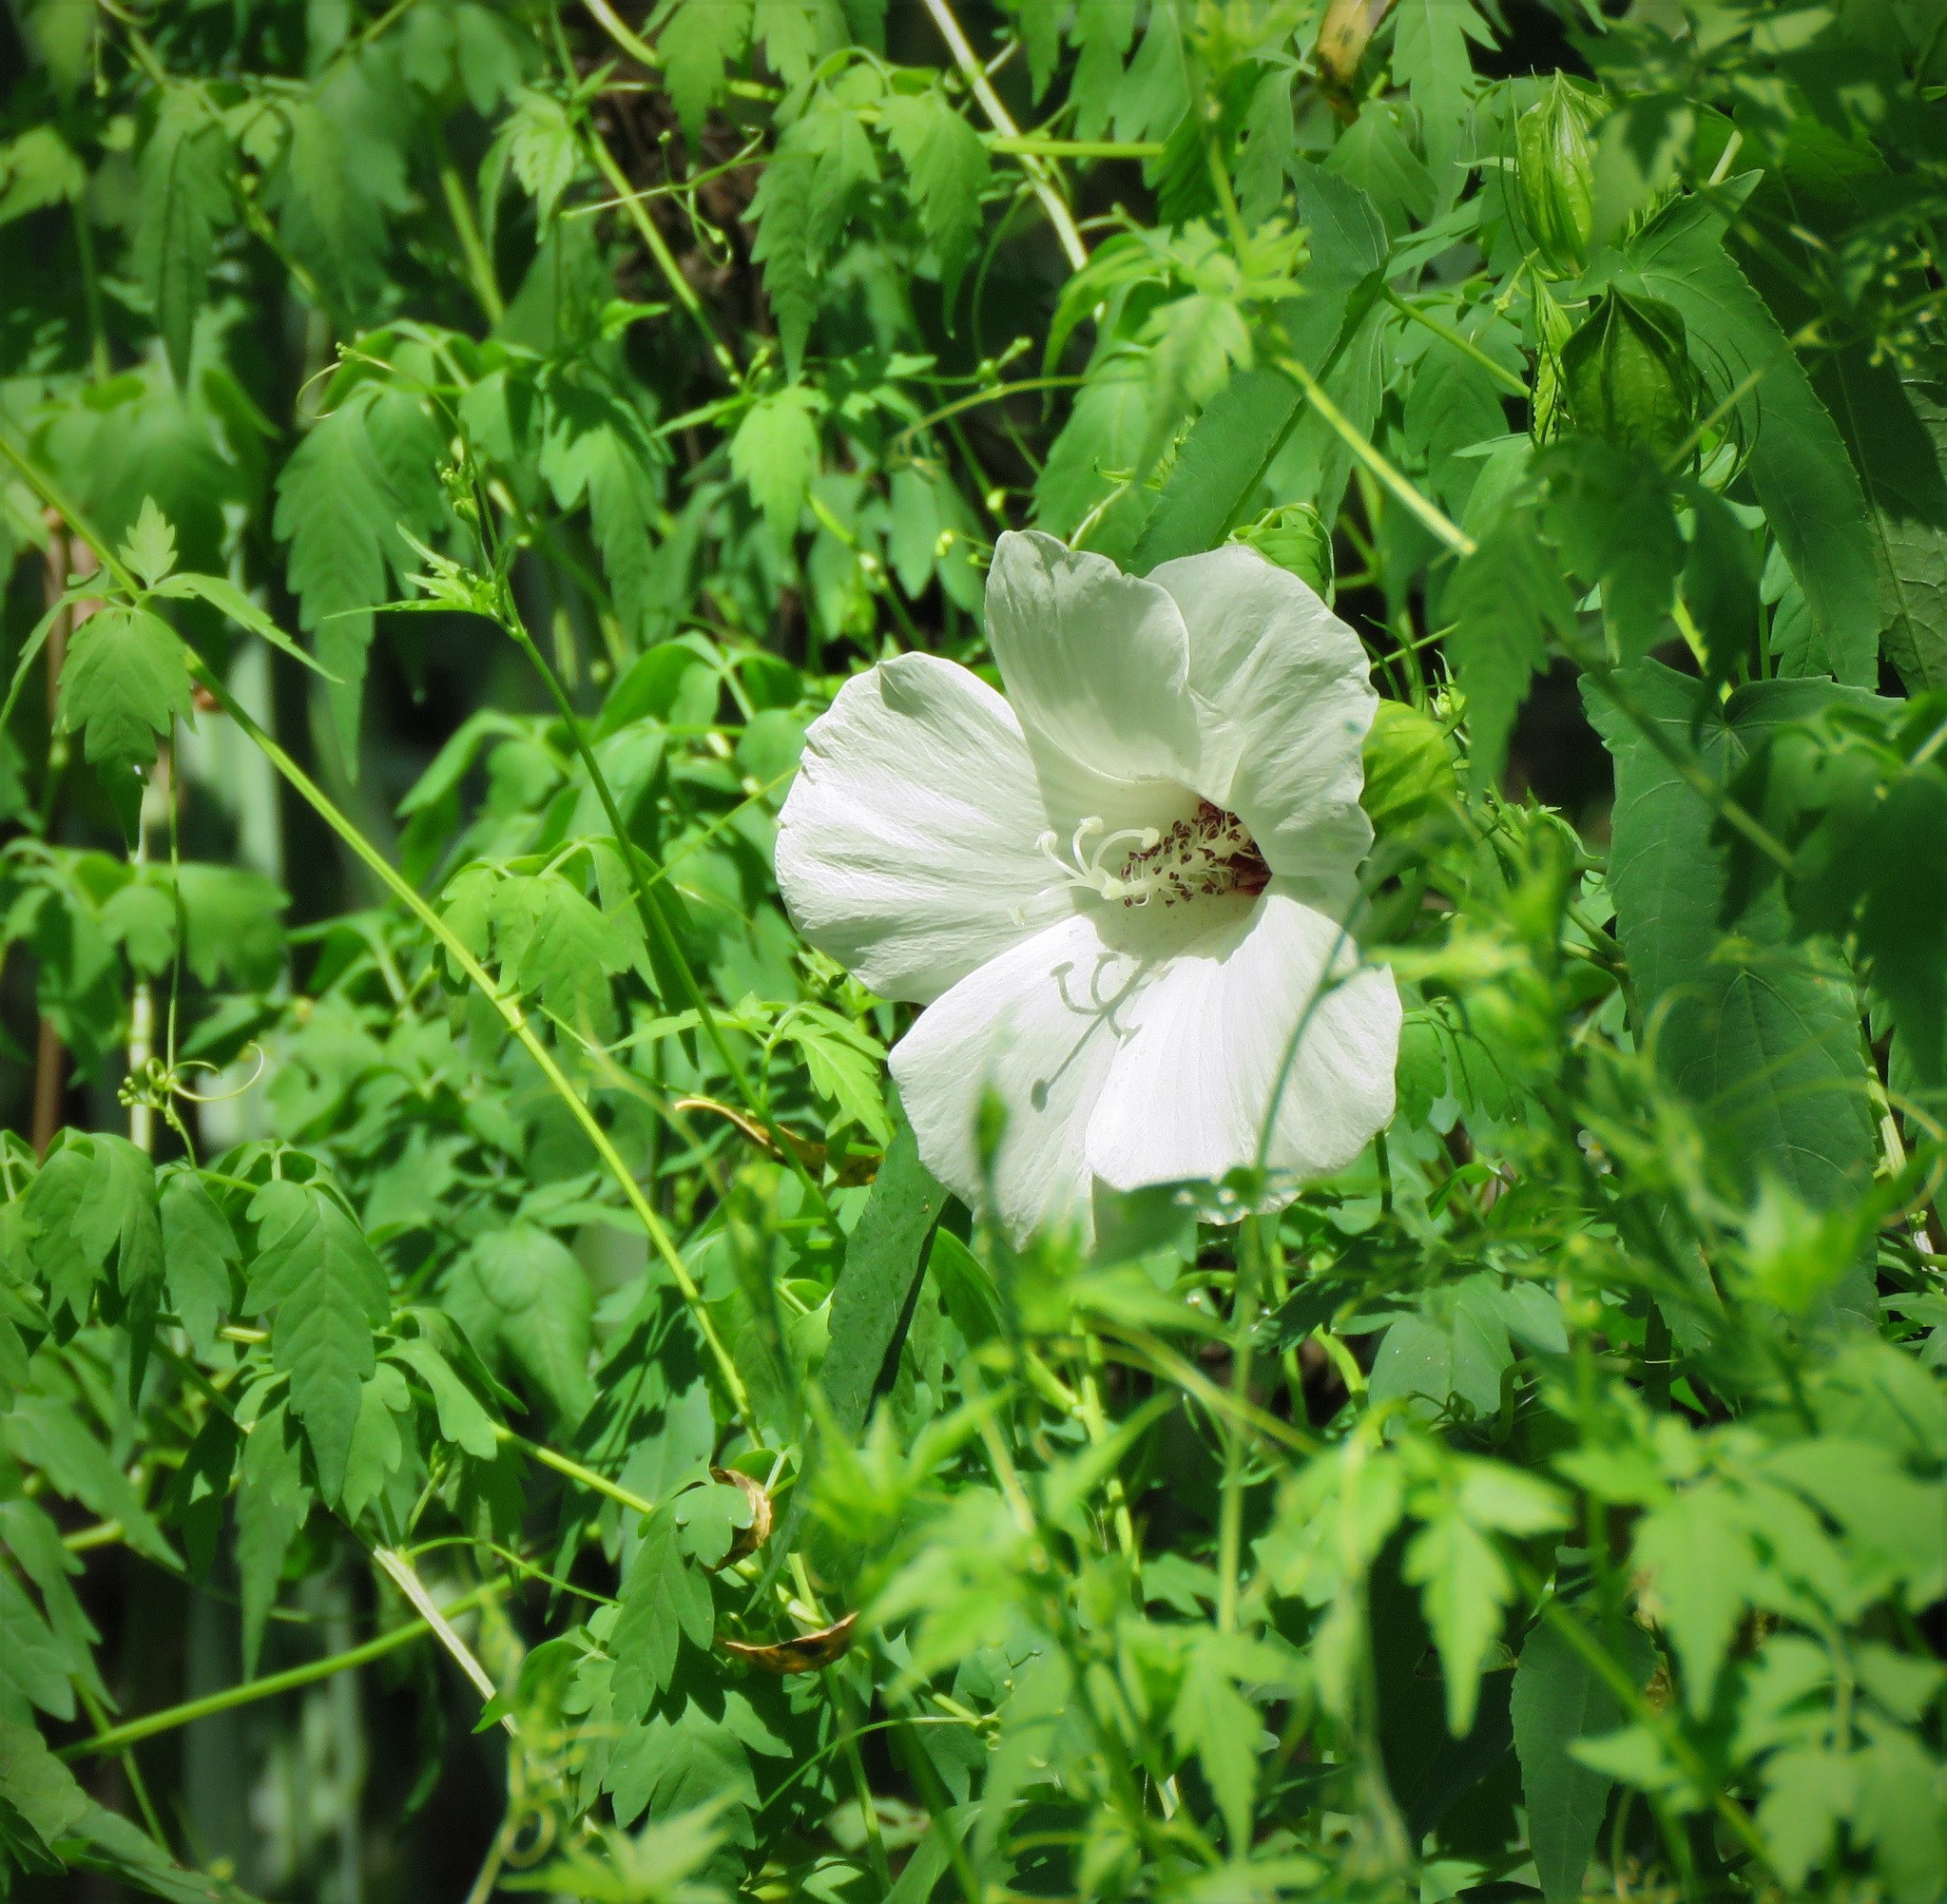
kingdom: Plantae
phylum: Tracheophyta
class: Magnoliopsida
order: Malvales
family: Malvaceae
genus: Hibiscus
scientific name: Hibiscus laevis
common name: Scarlet rose-mallow
